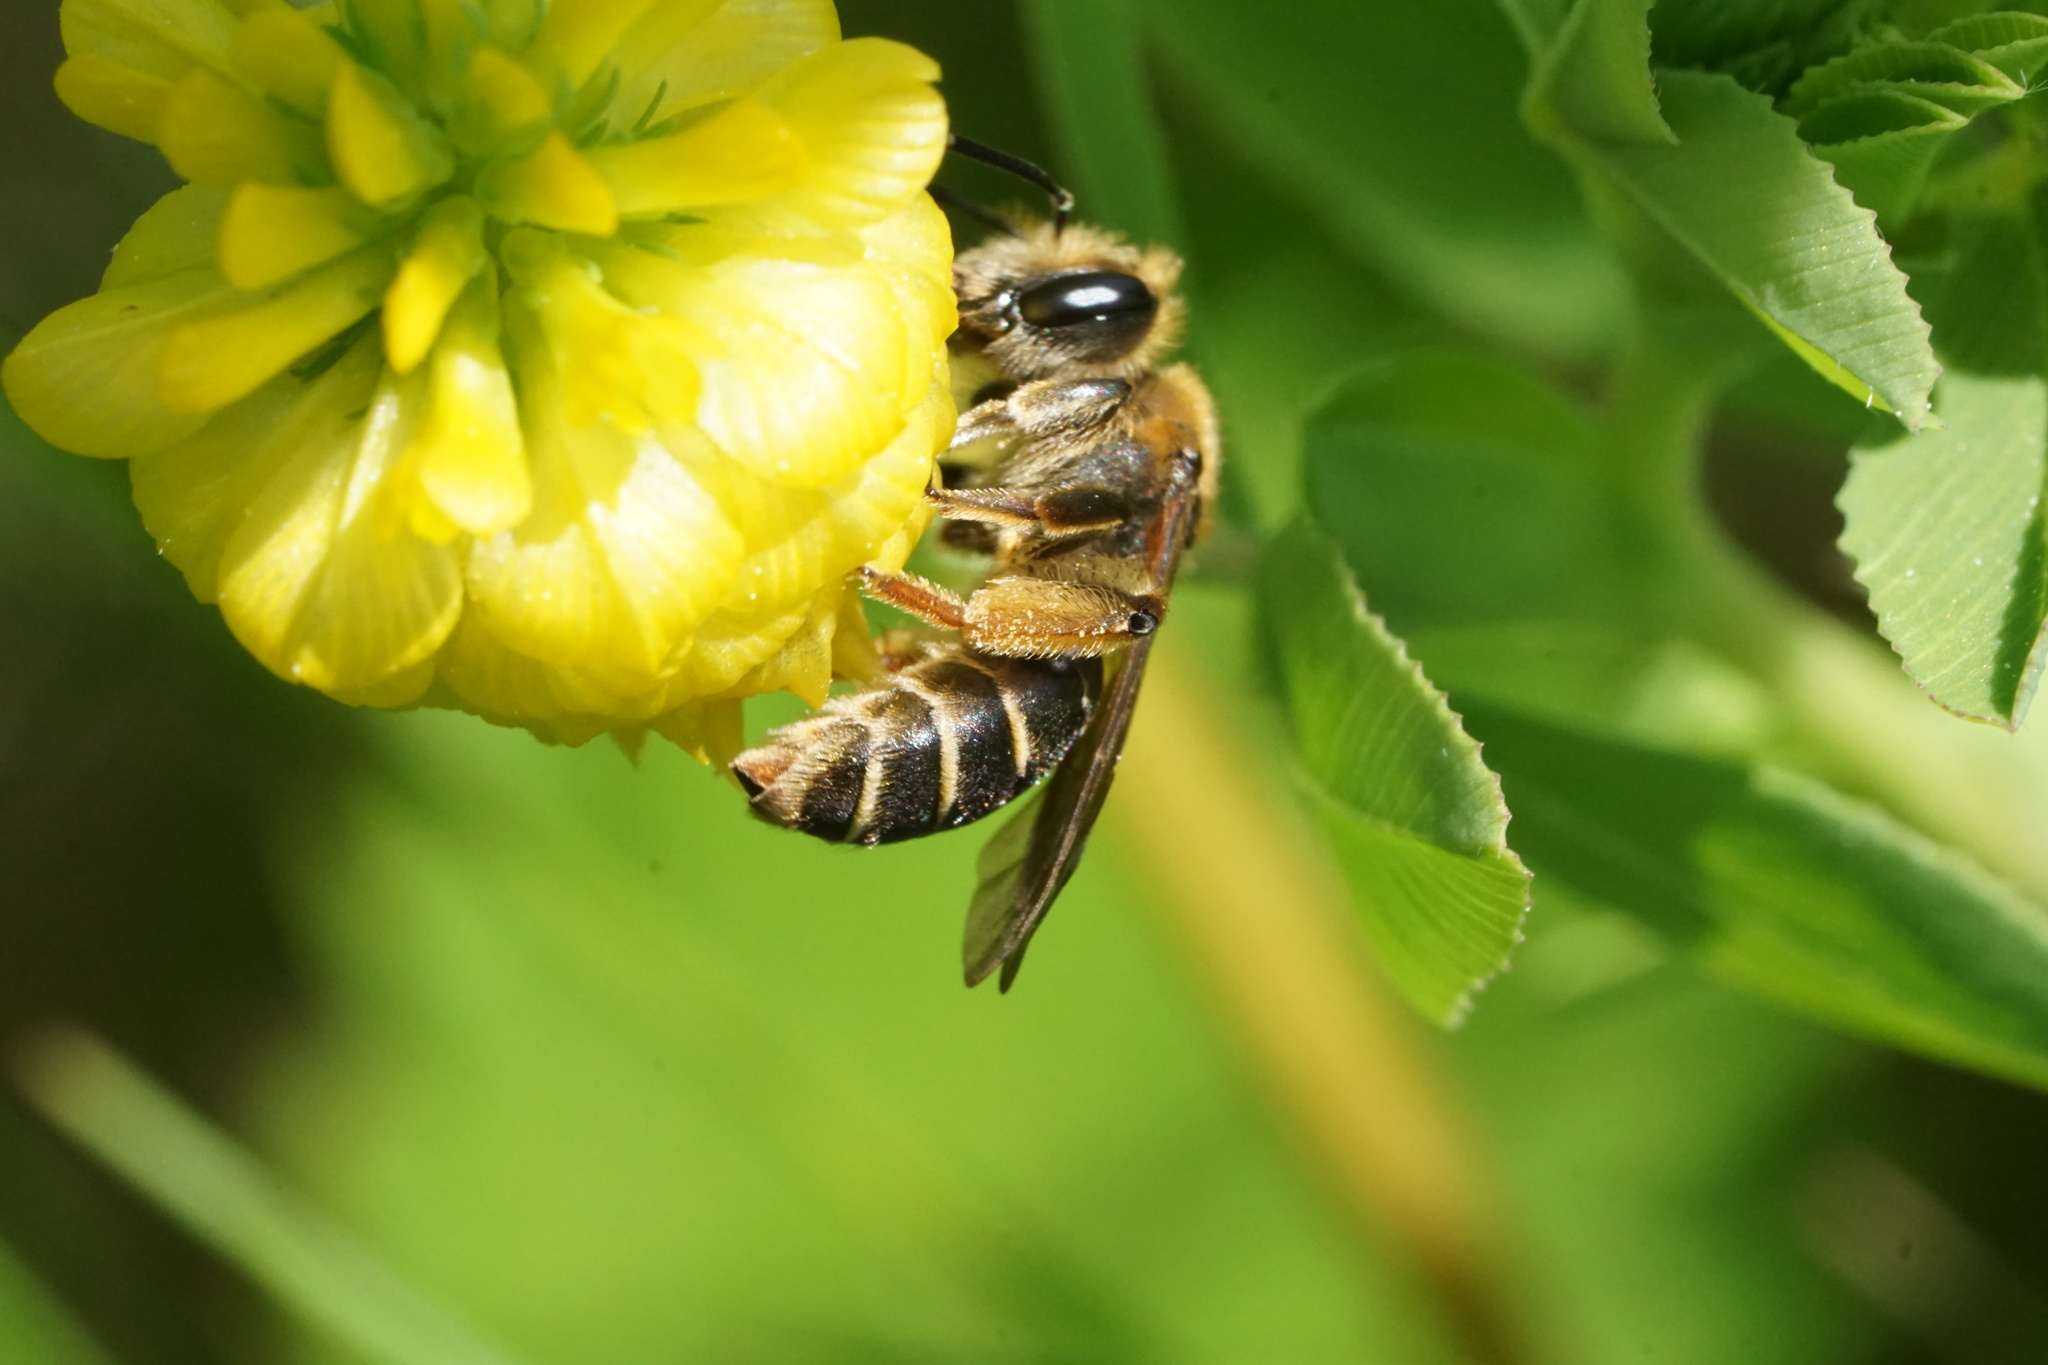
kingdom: Animalia
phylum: Arthropoda
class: Insecta
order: Hymenoptera
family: Andrenidae
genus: Andrena
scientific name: Andrena wilkella
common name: Wilke's mining bee
